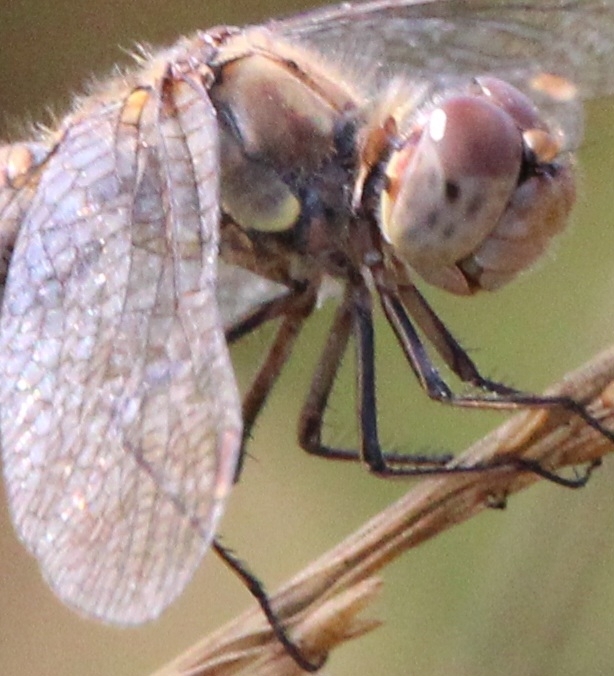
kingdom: Animalia
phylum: Arthropoda
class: Insecta
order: Odonata
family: Libellulidae
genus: Sympetrum
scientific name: Sympetrum striolatum
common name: Common darter
